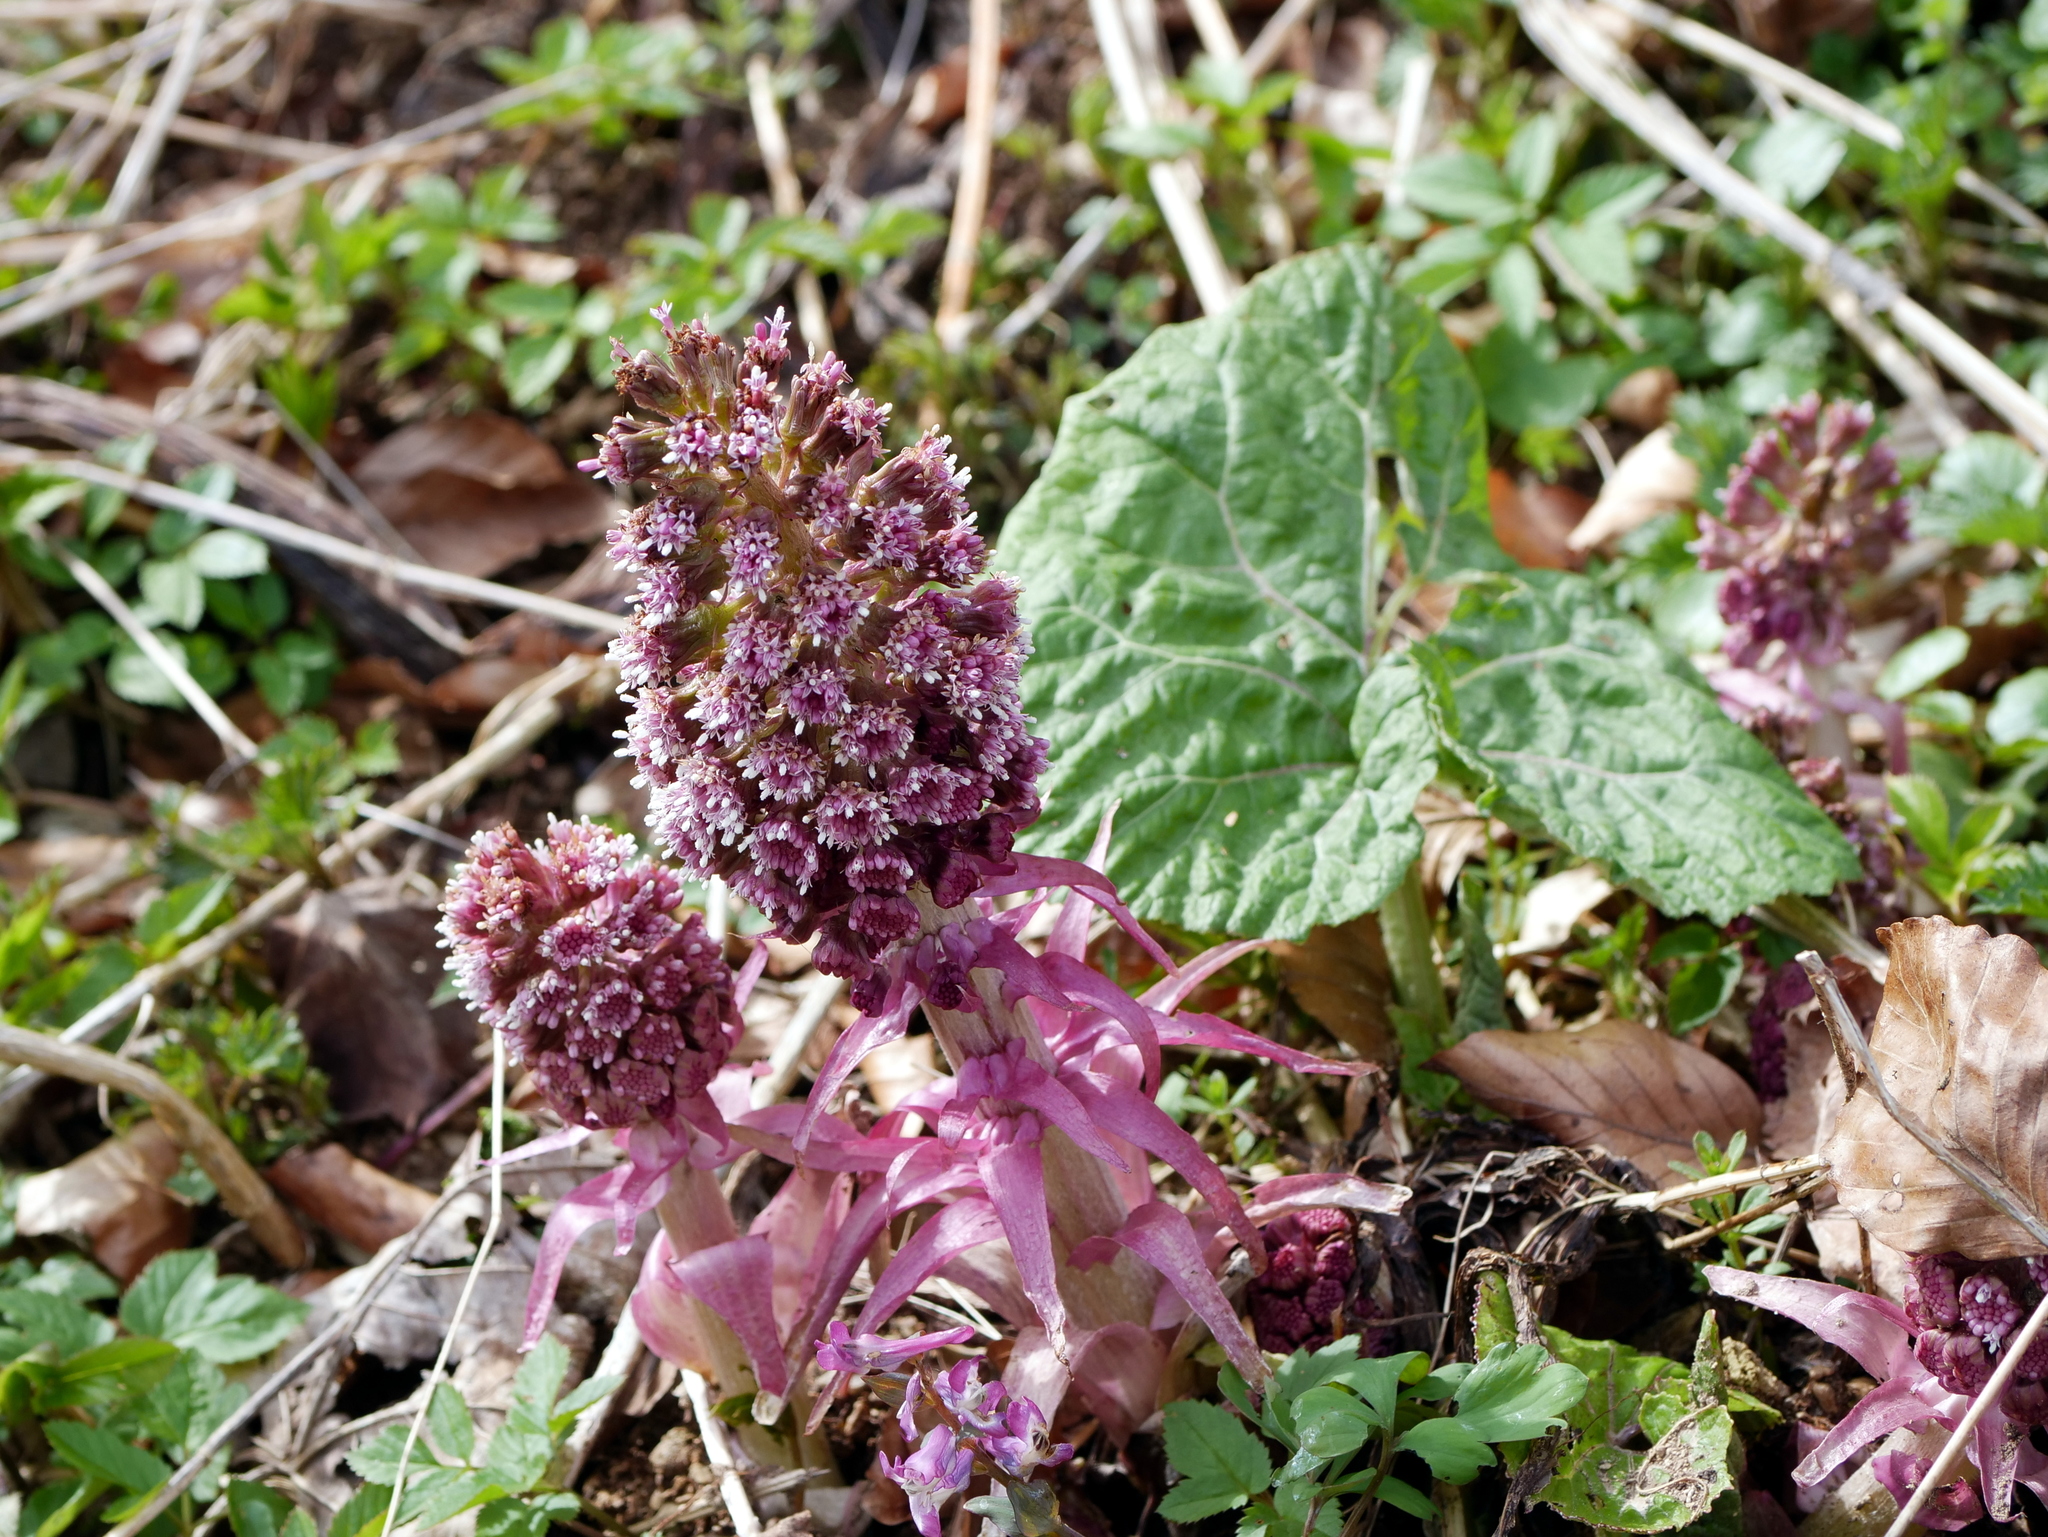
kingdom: Plantae
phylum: Tracheophyta
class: Magnoliopsida
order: Asterales
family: Asteraceae
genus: Petasites
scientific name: Petasites hybridus
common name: Butterbur
